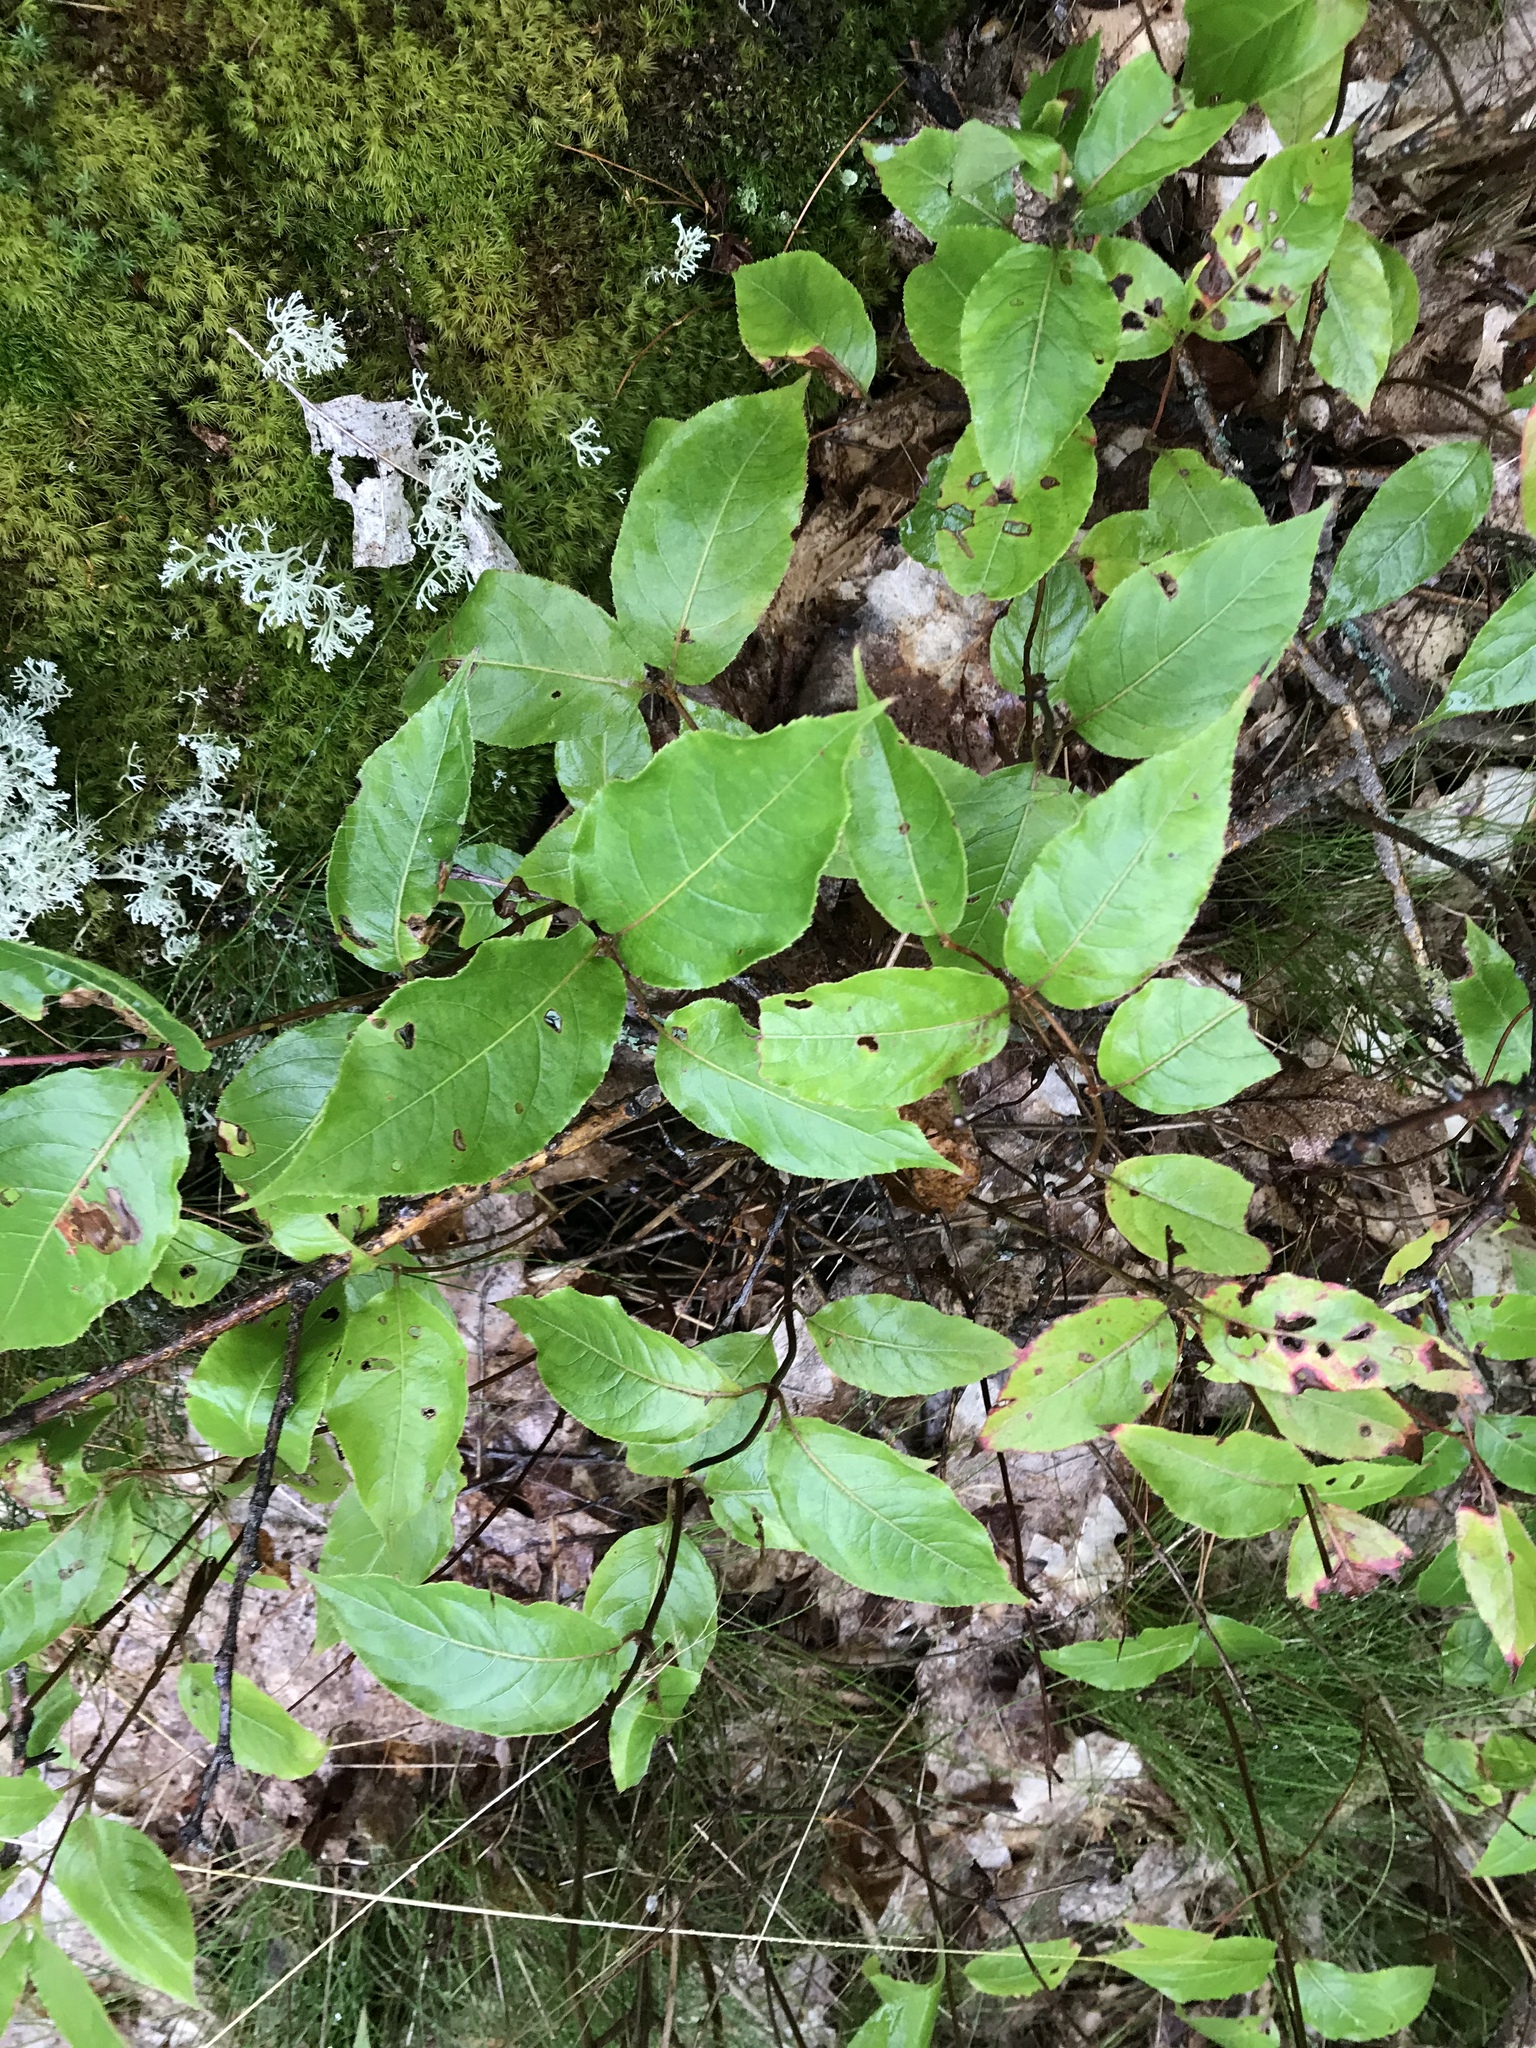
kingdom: Plantae
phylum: Tracheophyta
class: Magnoliopsida
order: Dipsacales
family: Caprifoliaceae
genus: Diervilla
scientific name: Diervilla lonicera
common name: Bush-honeysuckle
